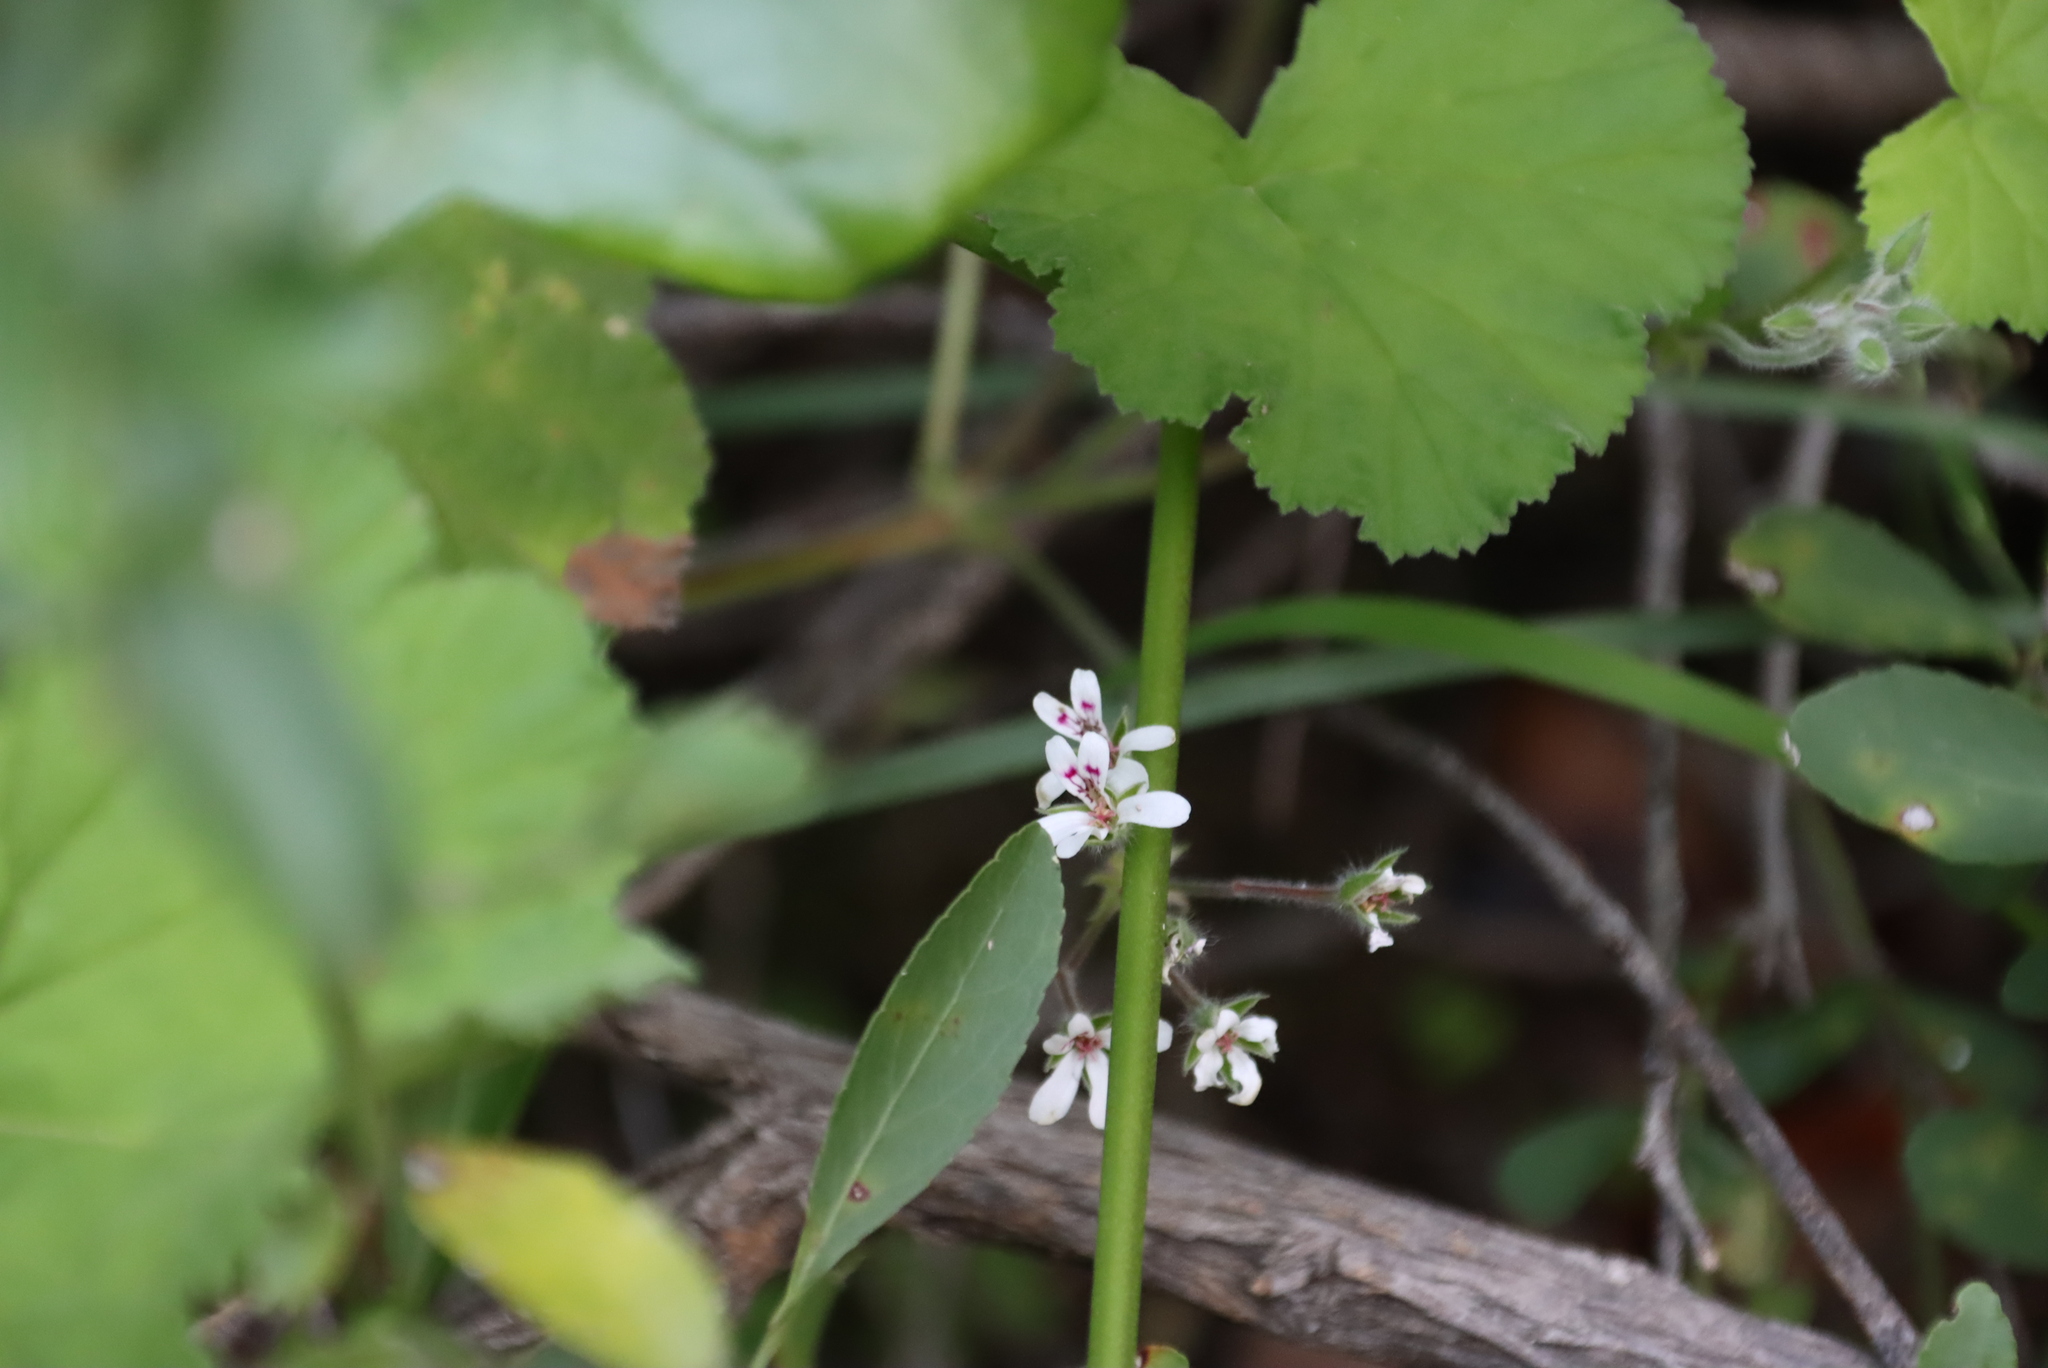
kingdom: Plantae
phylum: Tracheophyta
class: Magnoliopsida
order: Geraniales
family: Geraniaceae
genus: Pelargonium
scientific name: Pelargonium odoratissimum
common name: Apple geranium
